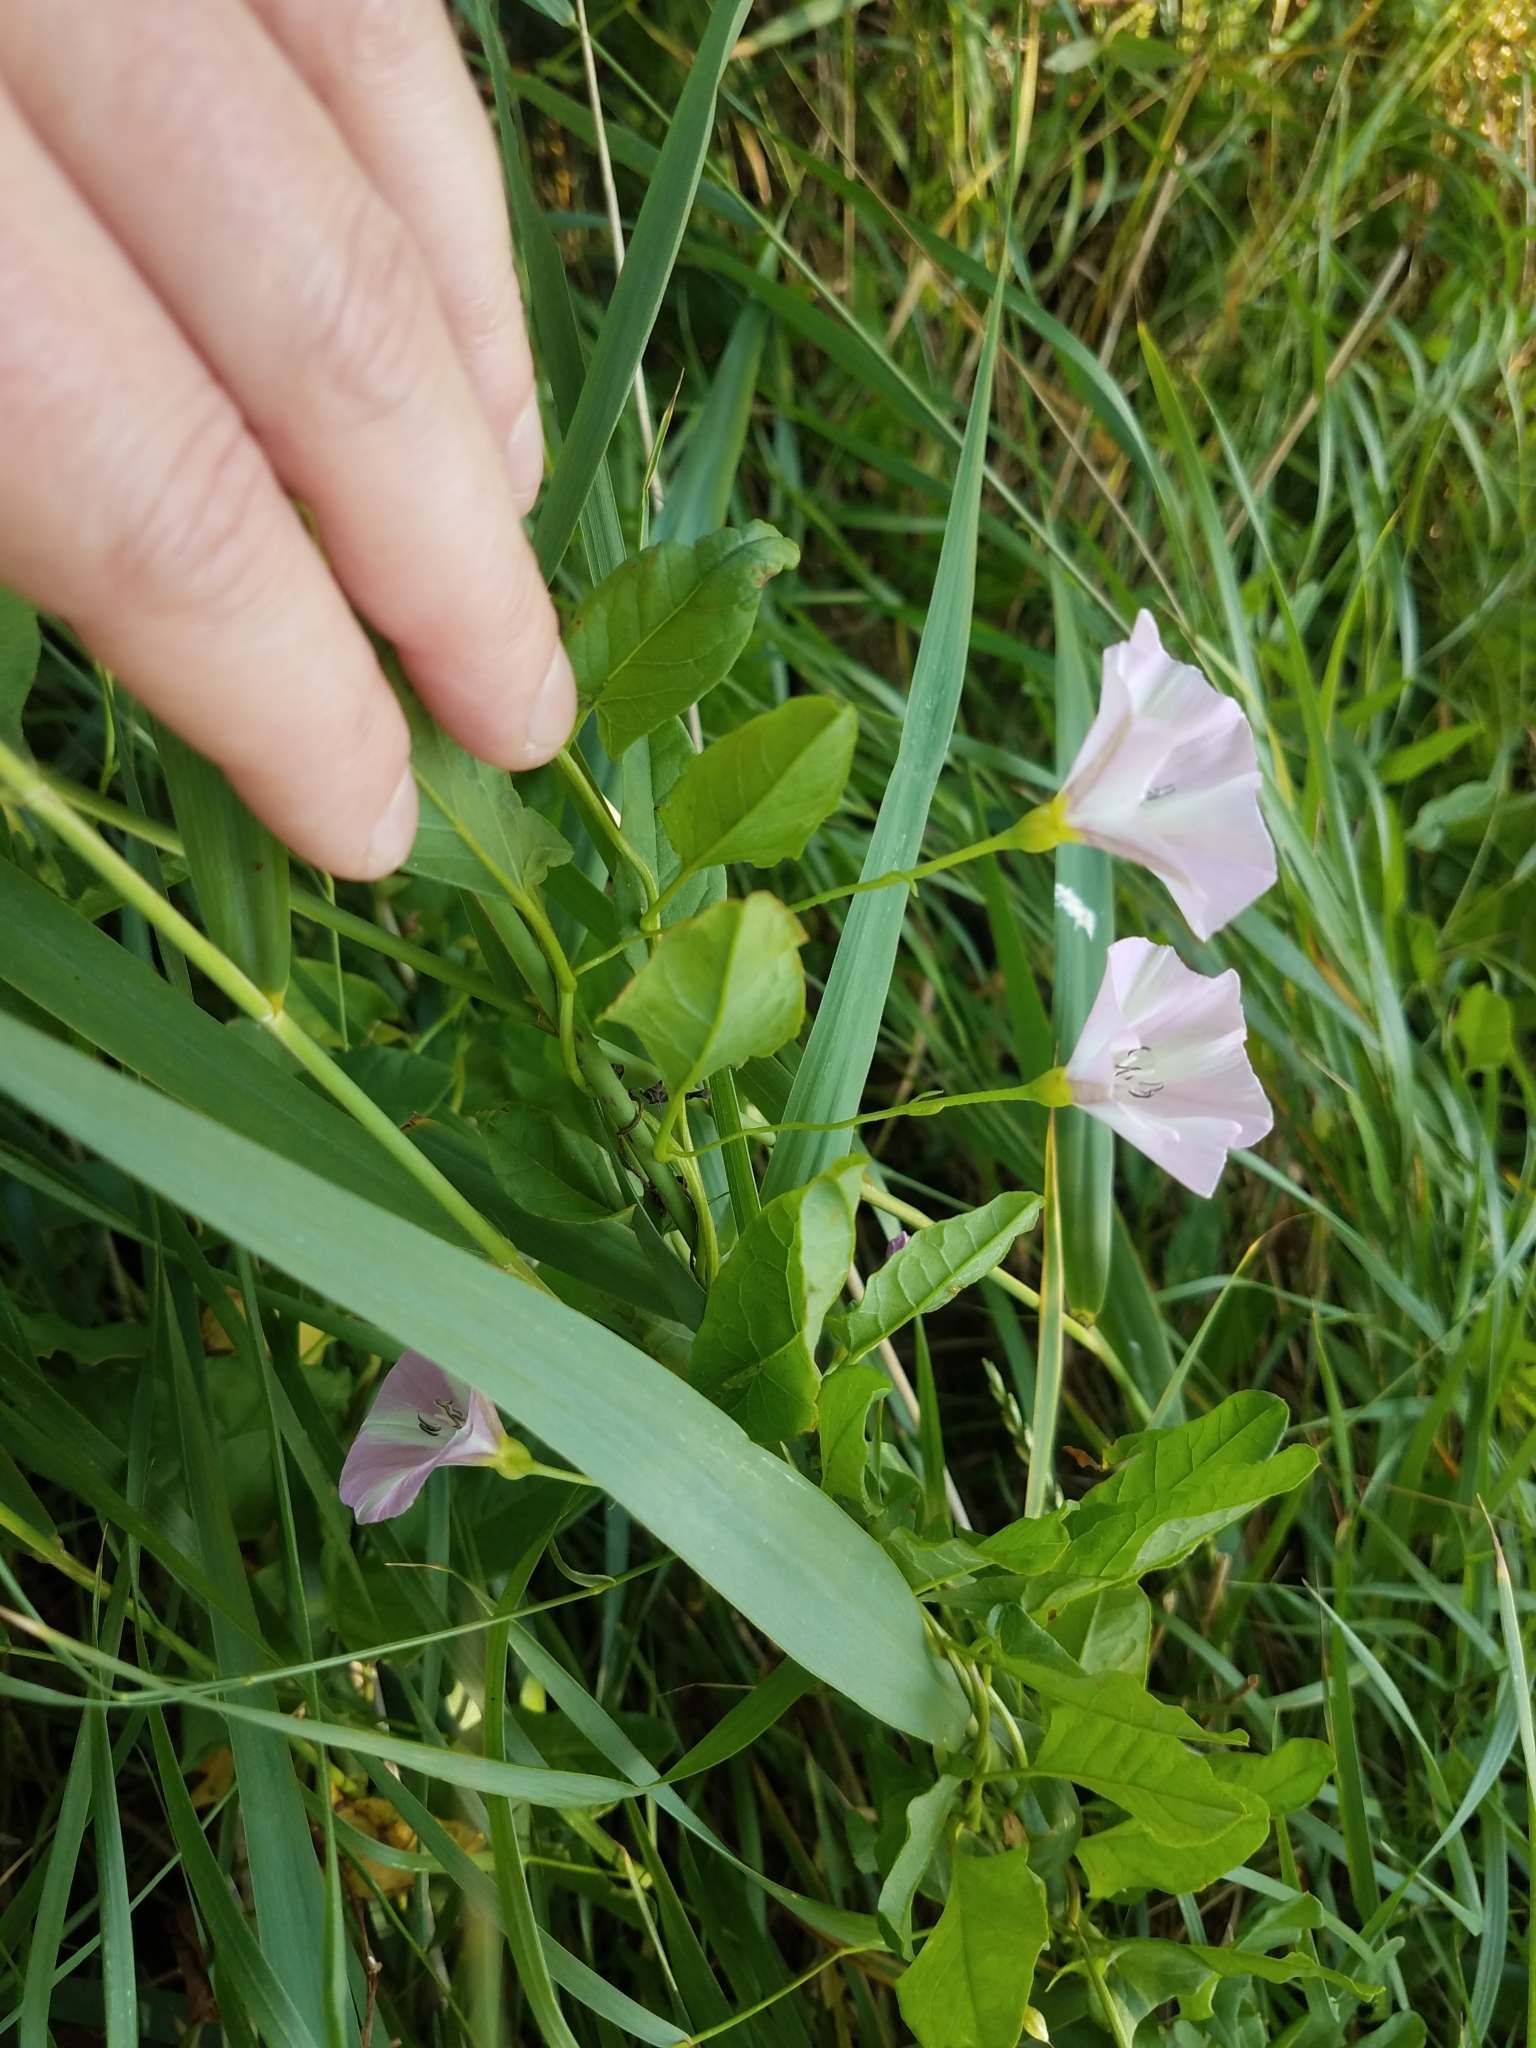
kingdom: Plantae
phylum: Tracheophyta
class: Magnoliopsida
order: Solanales
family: Convolvulaceae
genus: Convolvulus
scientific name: Convolvulus arvensis
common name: Field bindweed
